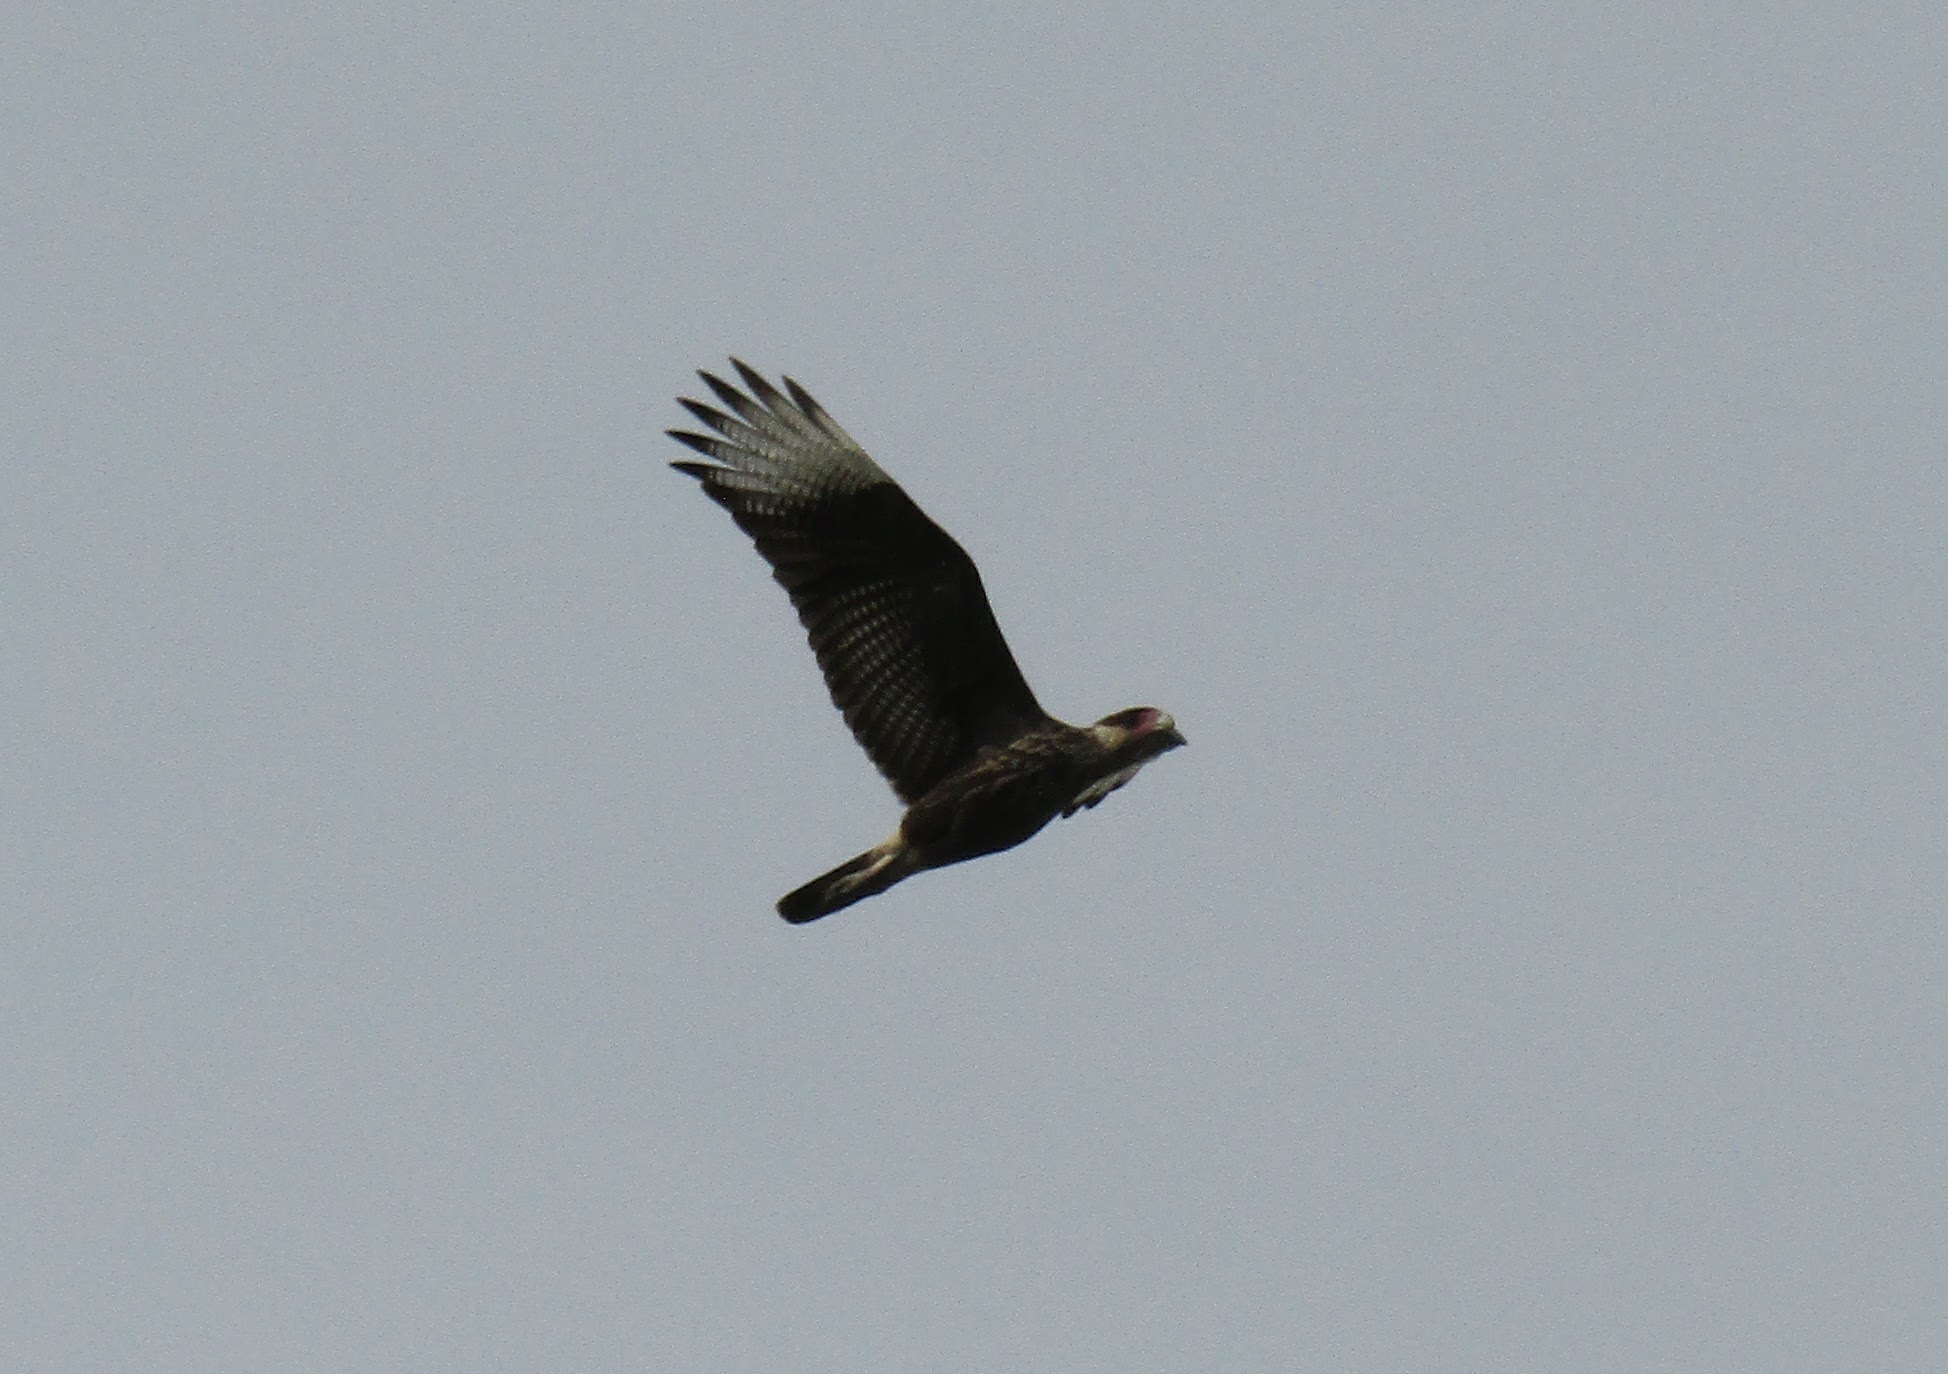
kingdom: Animalia
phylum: Chordata
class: Aves
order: Falconiformes
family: Falconidae
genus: Caracara
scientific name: Caracara plancus
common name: Southern caracara
